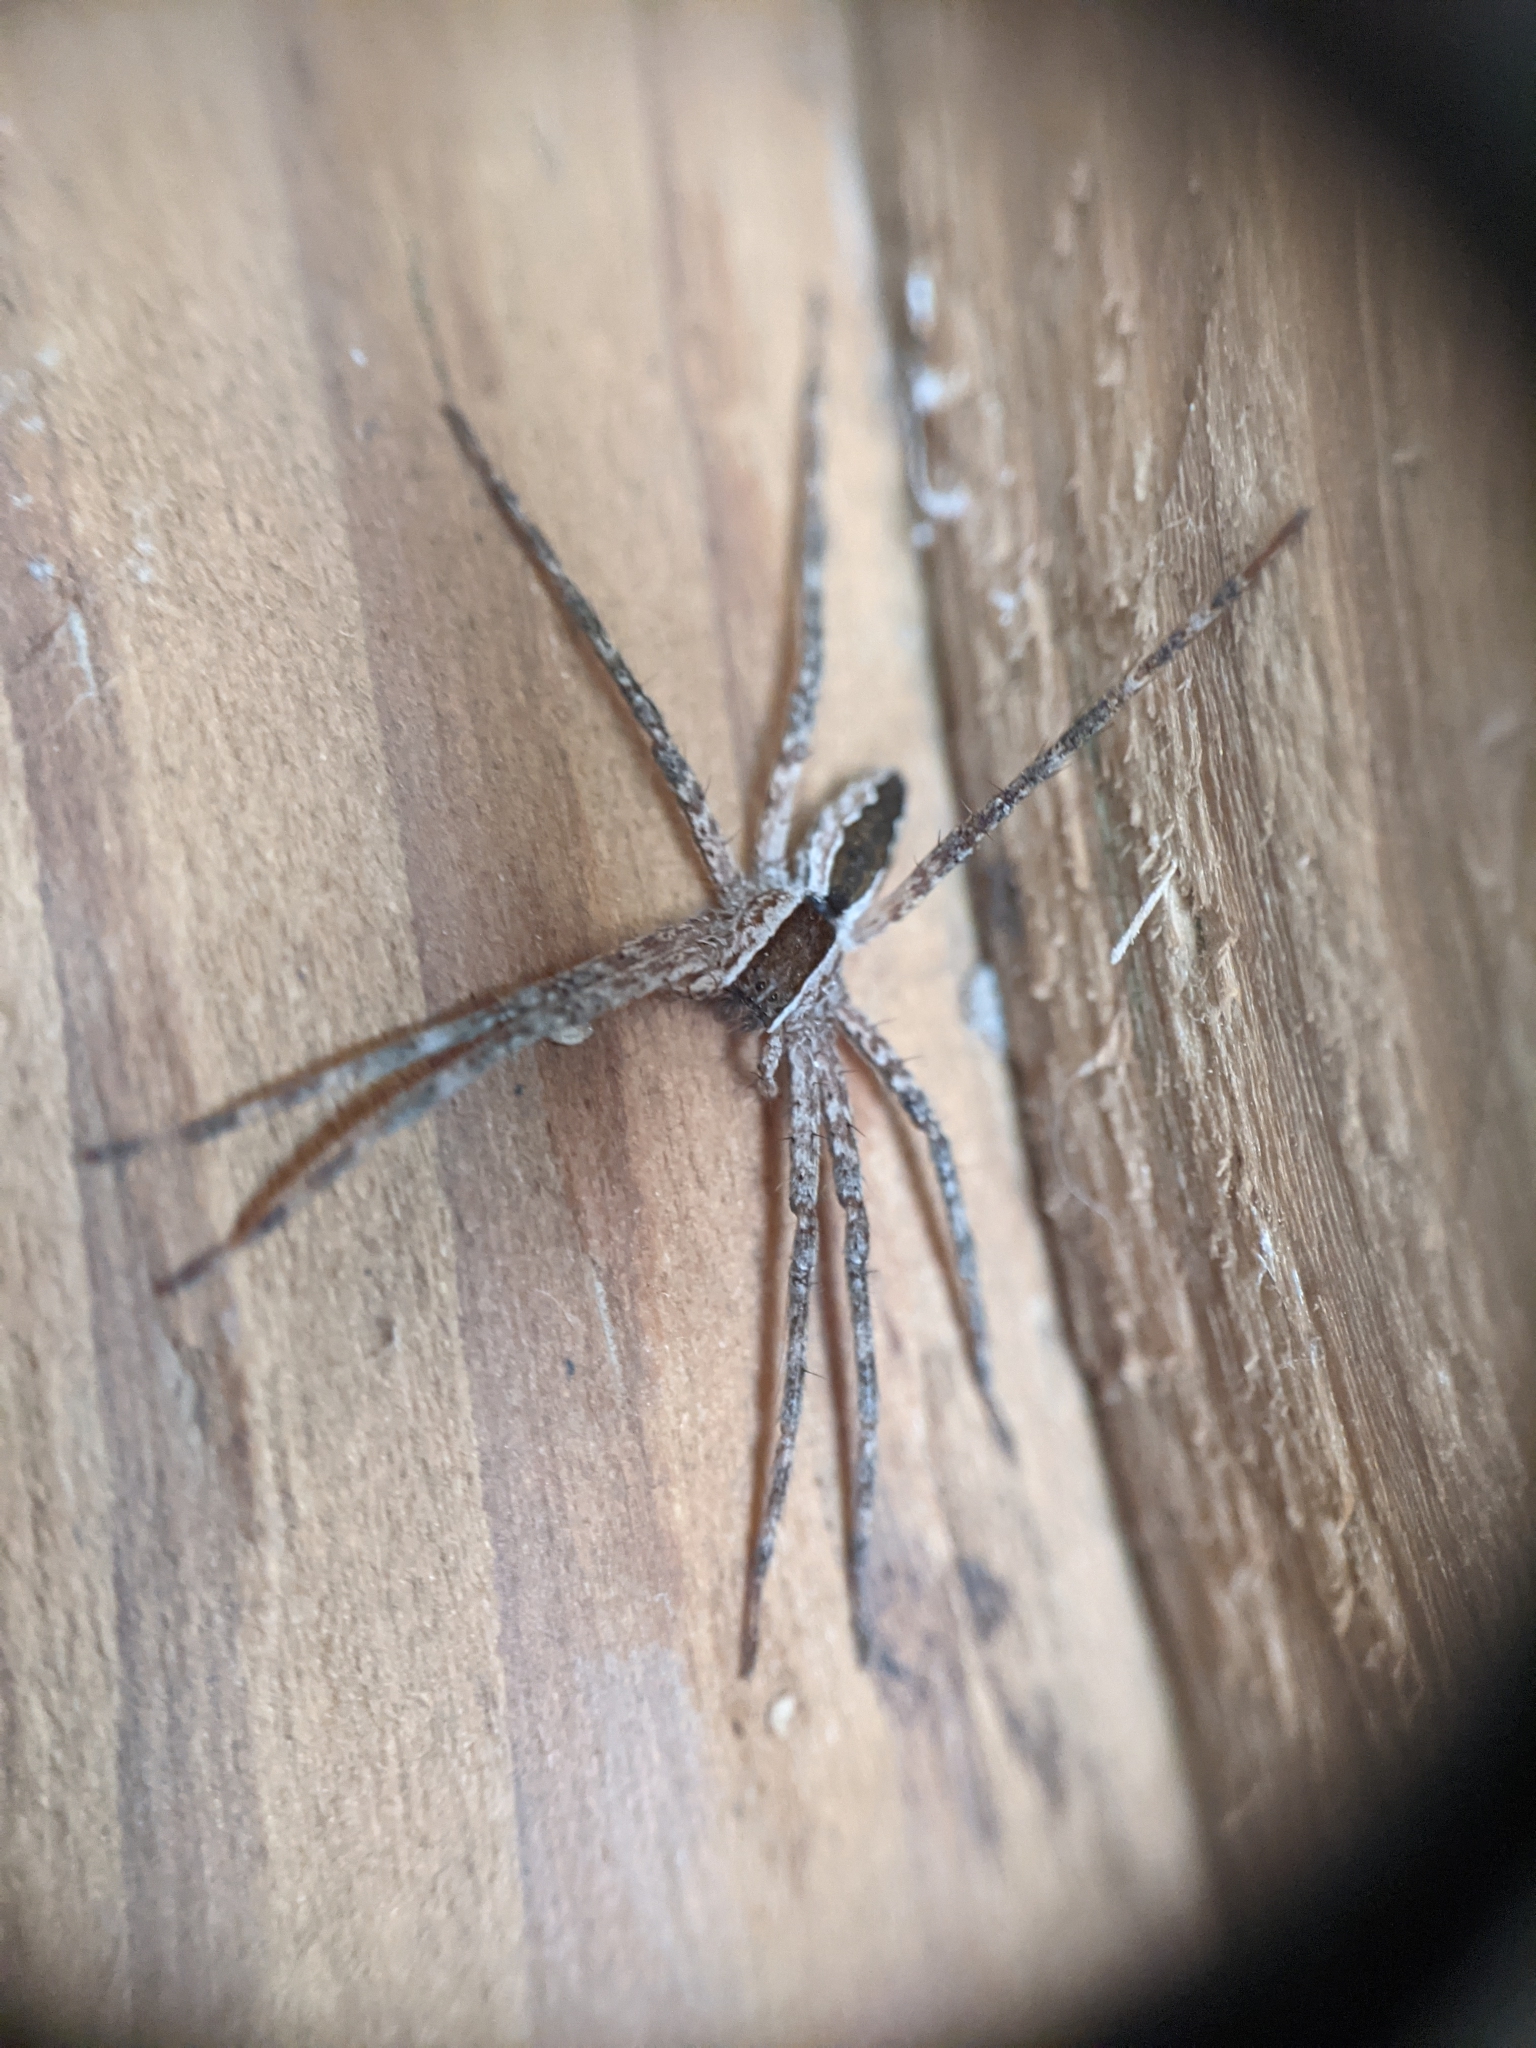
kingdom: Animalia
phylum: Arthropoda
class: Arachnida
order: Araneae
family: Pisauridae
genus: Pisaurina
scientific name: Pisaurina mira
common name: American nursery web spider
